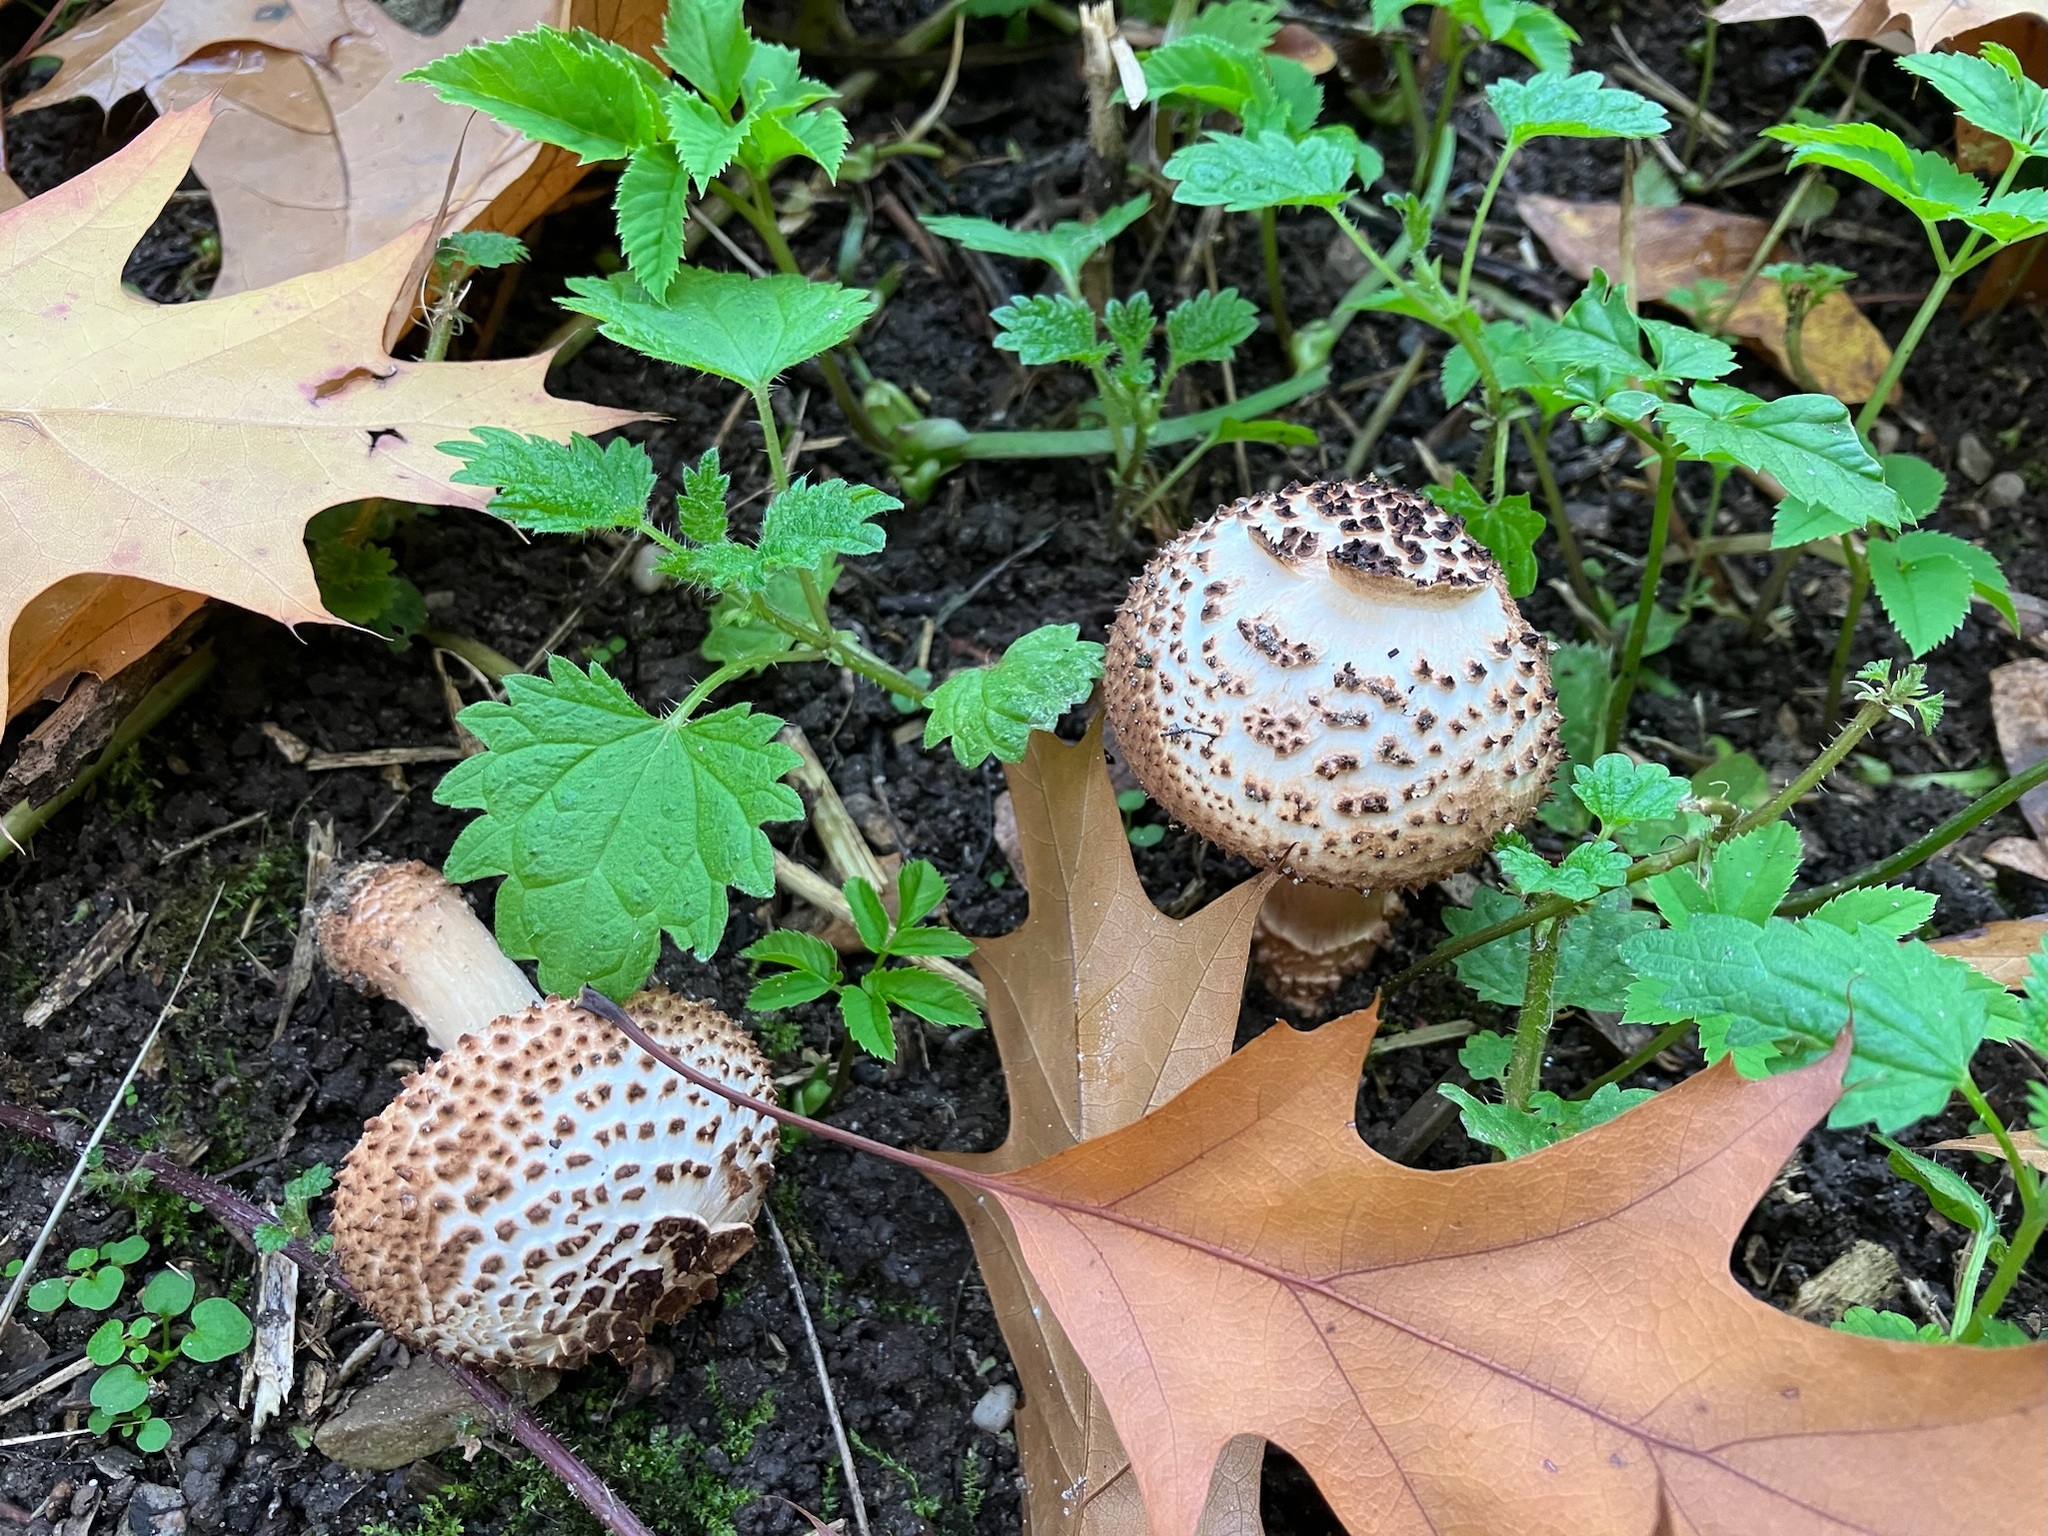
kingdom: Fungi
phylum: Basidiomycota
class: Agaricomycetes
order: Agaricales
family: Agaricaceae
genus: Echinoderma
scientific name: Echinoderma asperum
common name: Freckled dapperling
